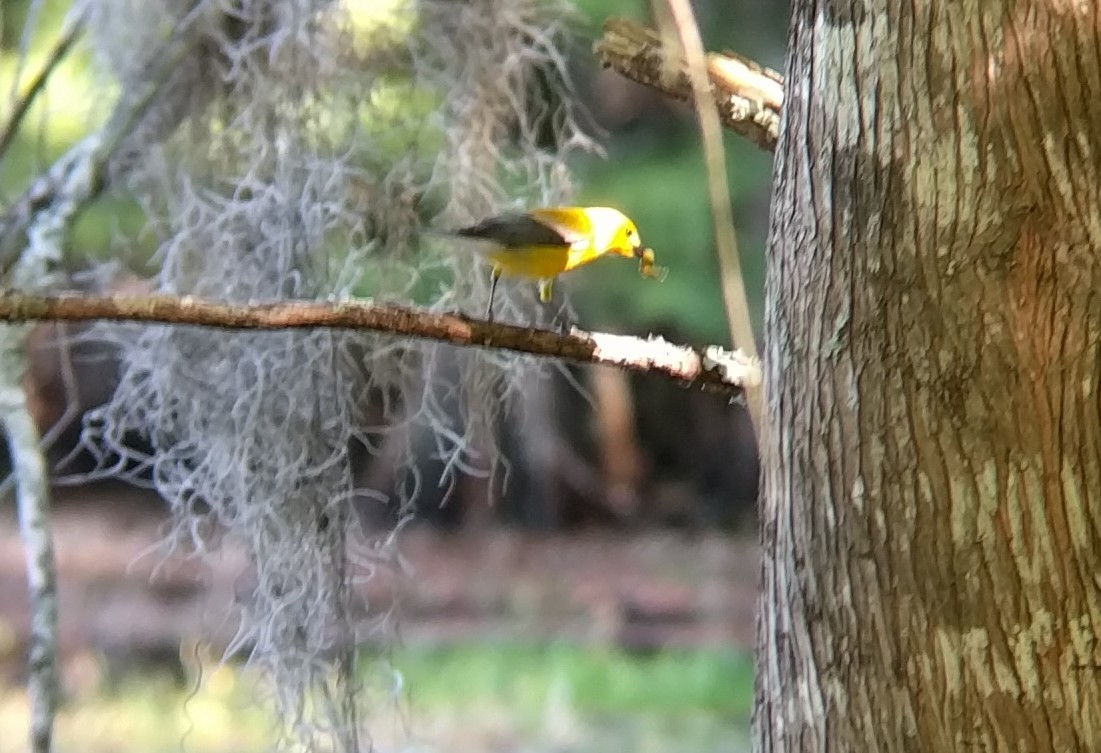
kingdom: Animalia
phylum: Chordata
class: Aves
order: Passeriformes
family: Parulidae
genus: Protonotaria
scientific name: Protonotaria citrea
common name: Prothonotary warbler
